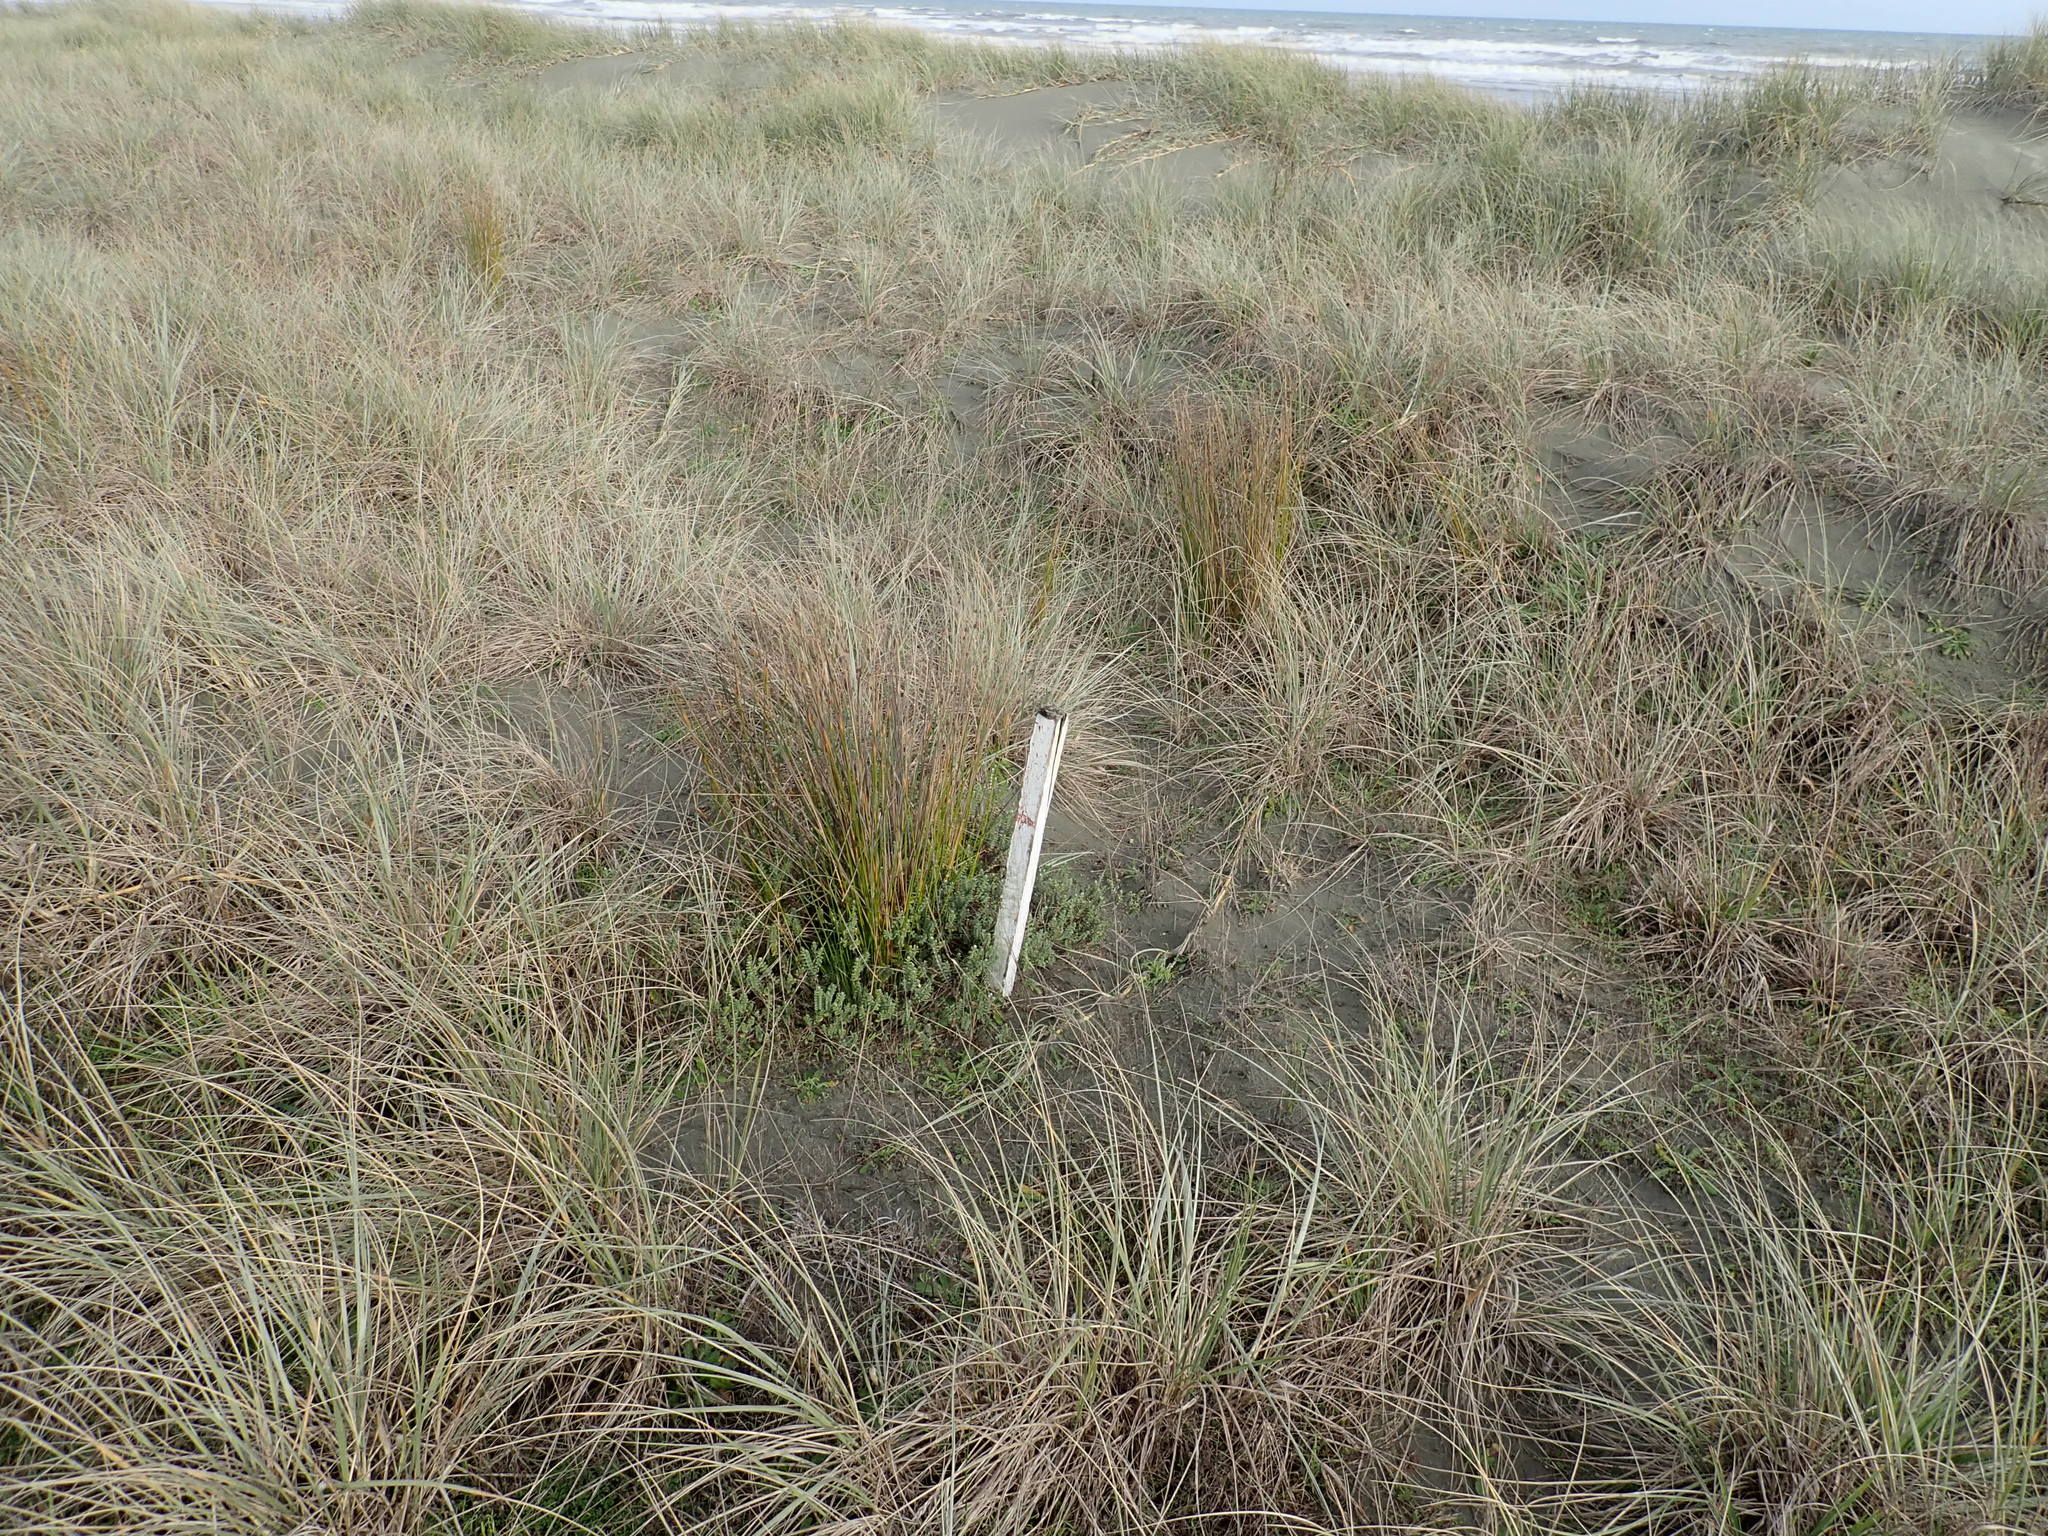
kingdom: Plantae
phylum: Tracheophyta
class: Magnoliopsida
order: Malvales
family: Thymelaeaceae
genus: Pimelea
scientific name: Pimelea villosa
